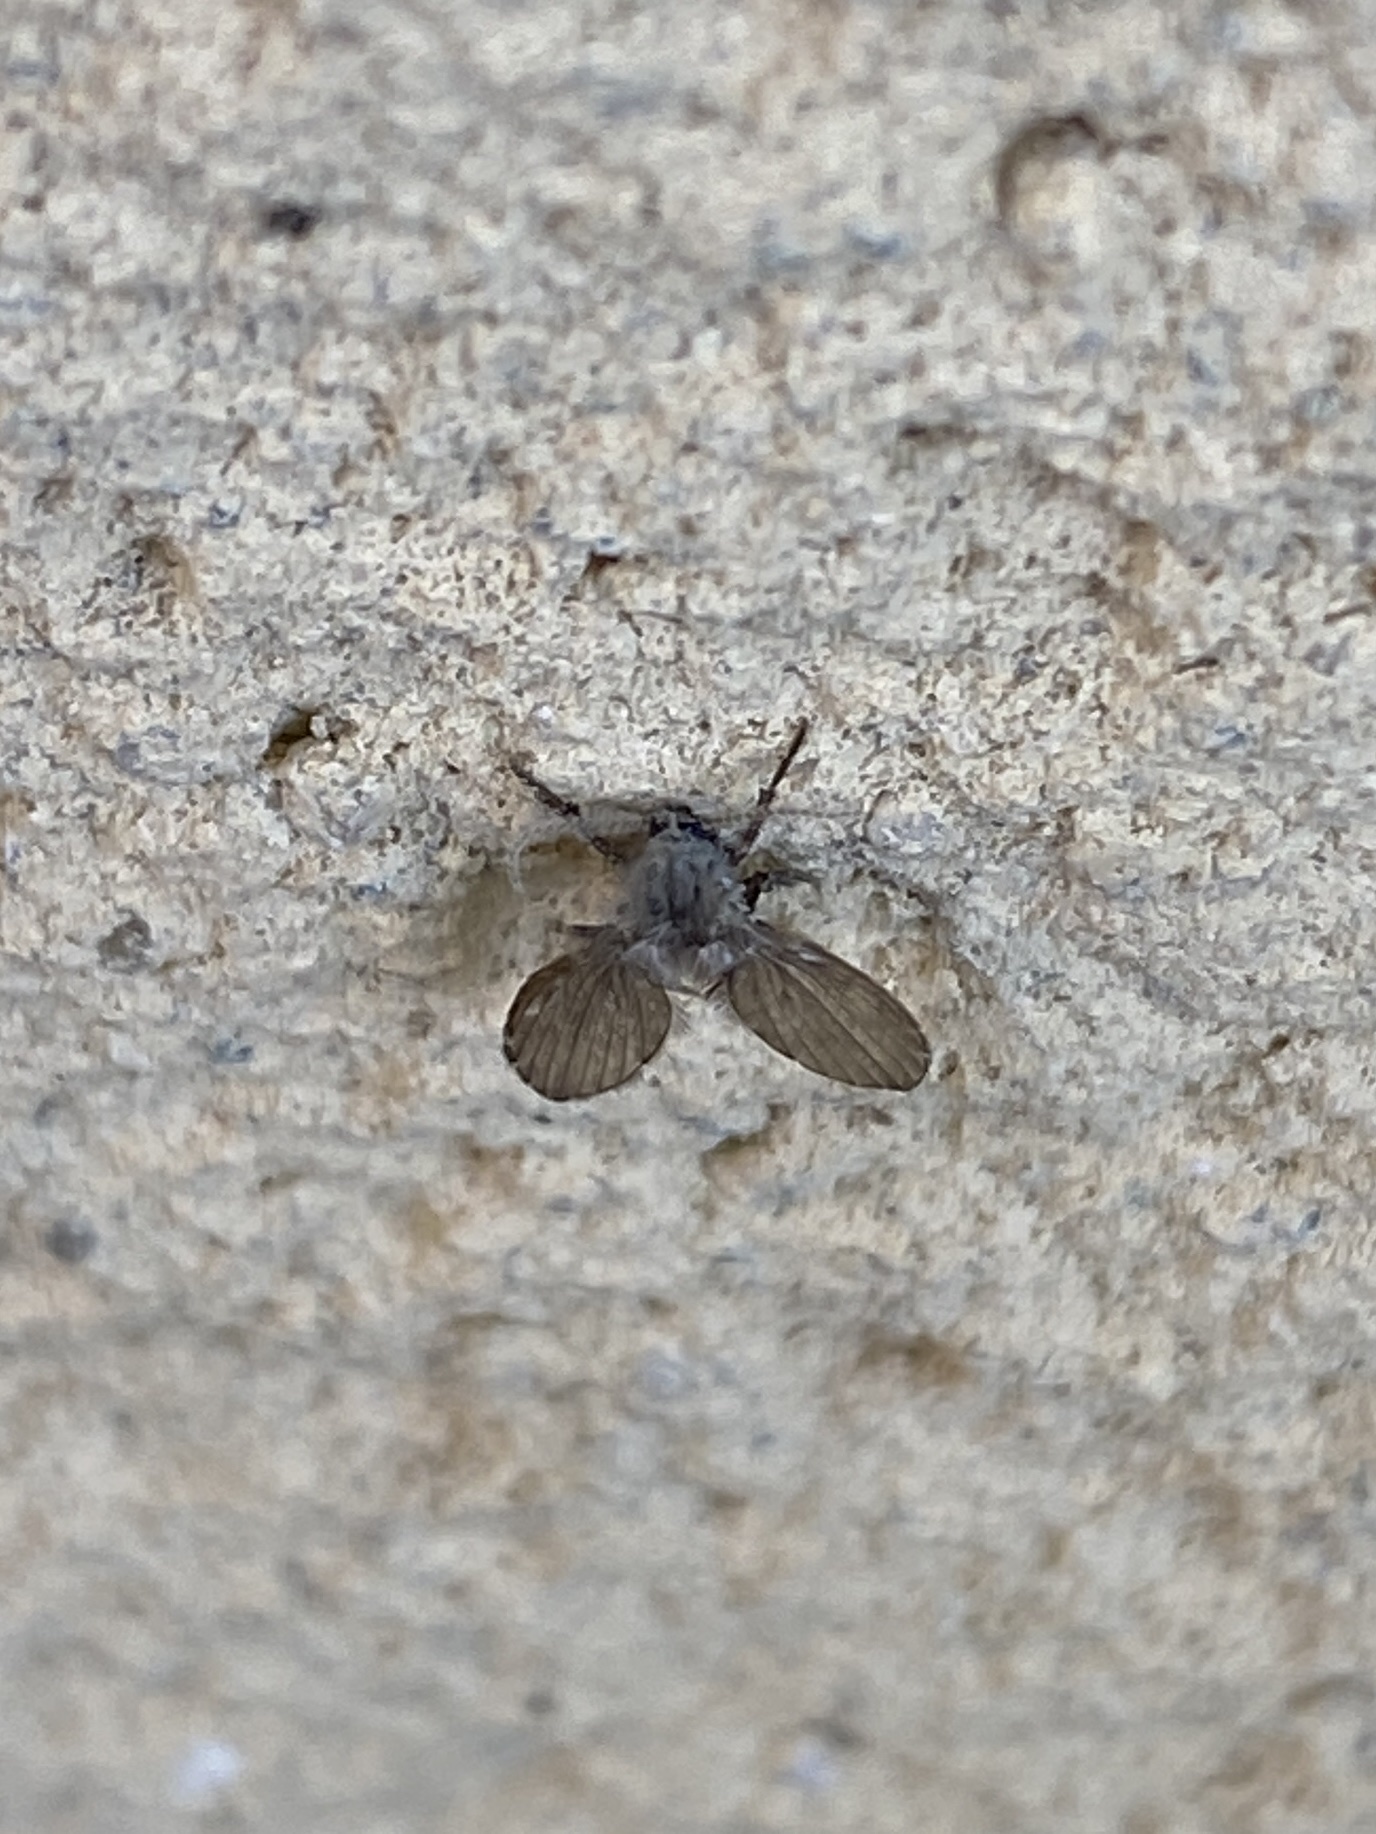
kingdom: Animalia
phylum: Arthropoda
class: Insecta
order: Diptera
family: Psychodidae
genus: Clogmia
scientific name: Clogmia albipunctatus
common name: White-spotted moth fly
